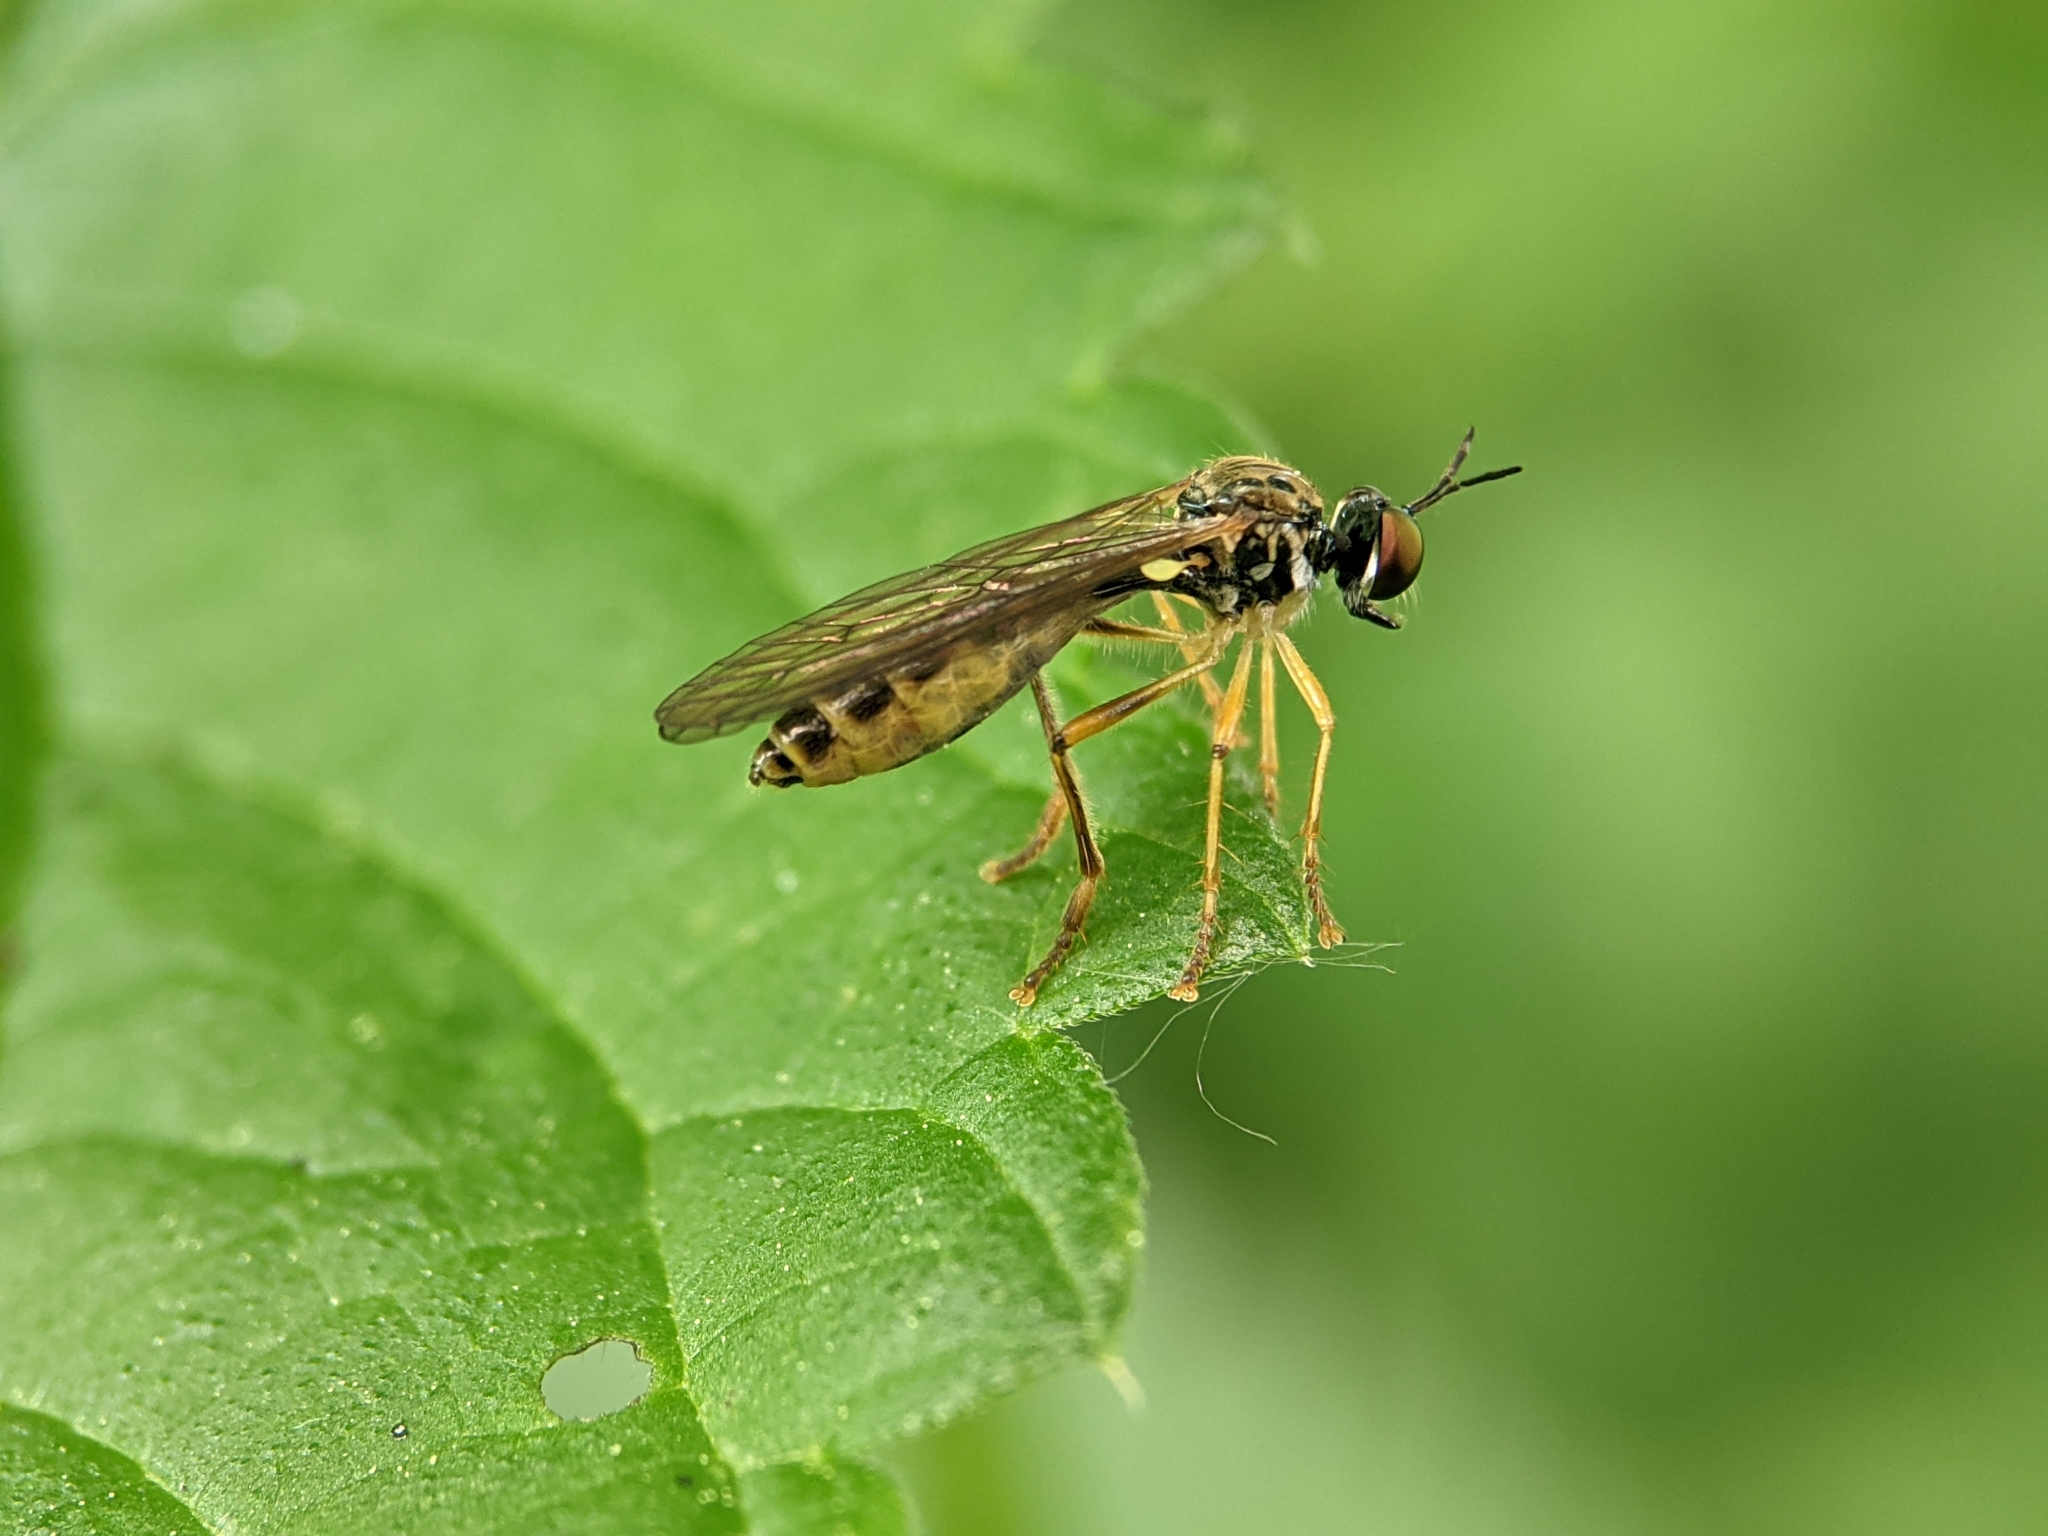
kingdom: Animalia
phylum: Arthropoda
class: Insecta
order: Diptera
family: Asilidae
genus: Dioctria
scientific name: Dioctria linearis
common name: Small yellow-legged robberfly
